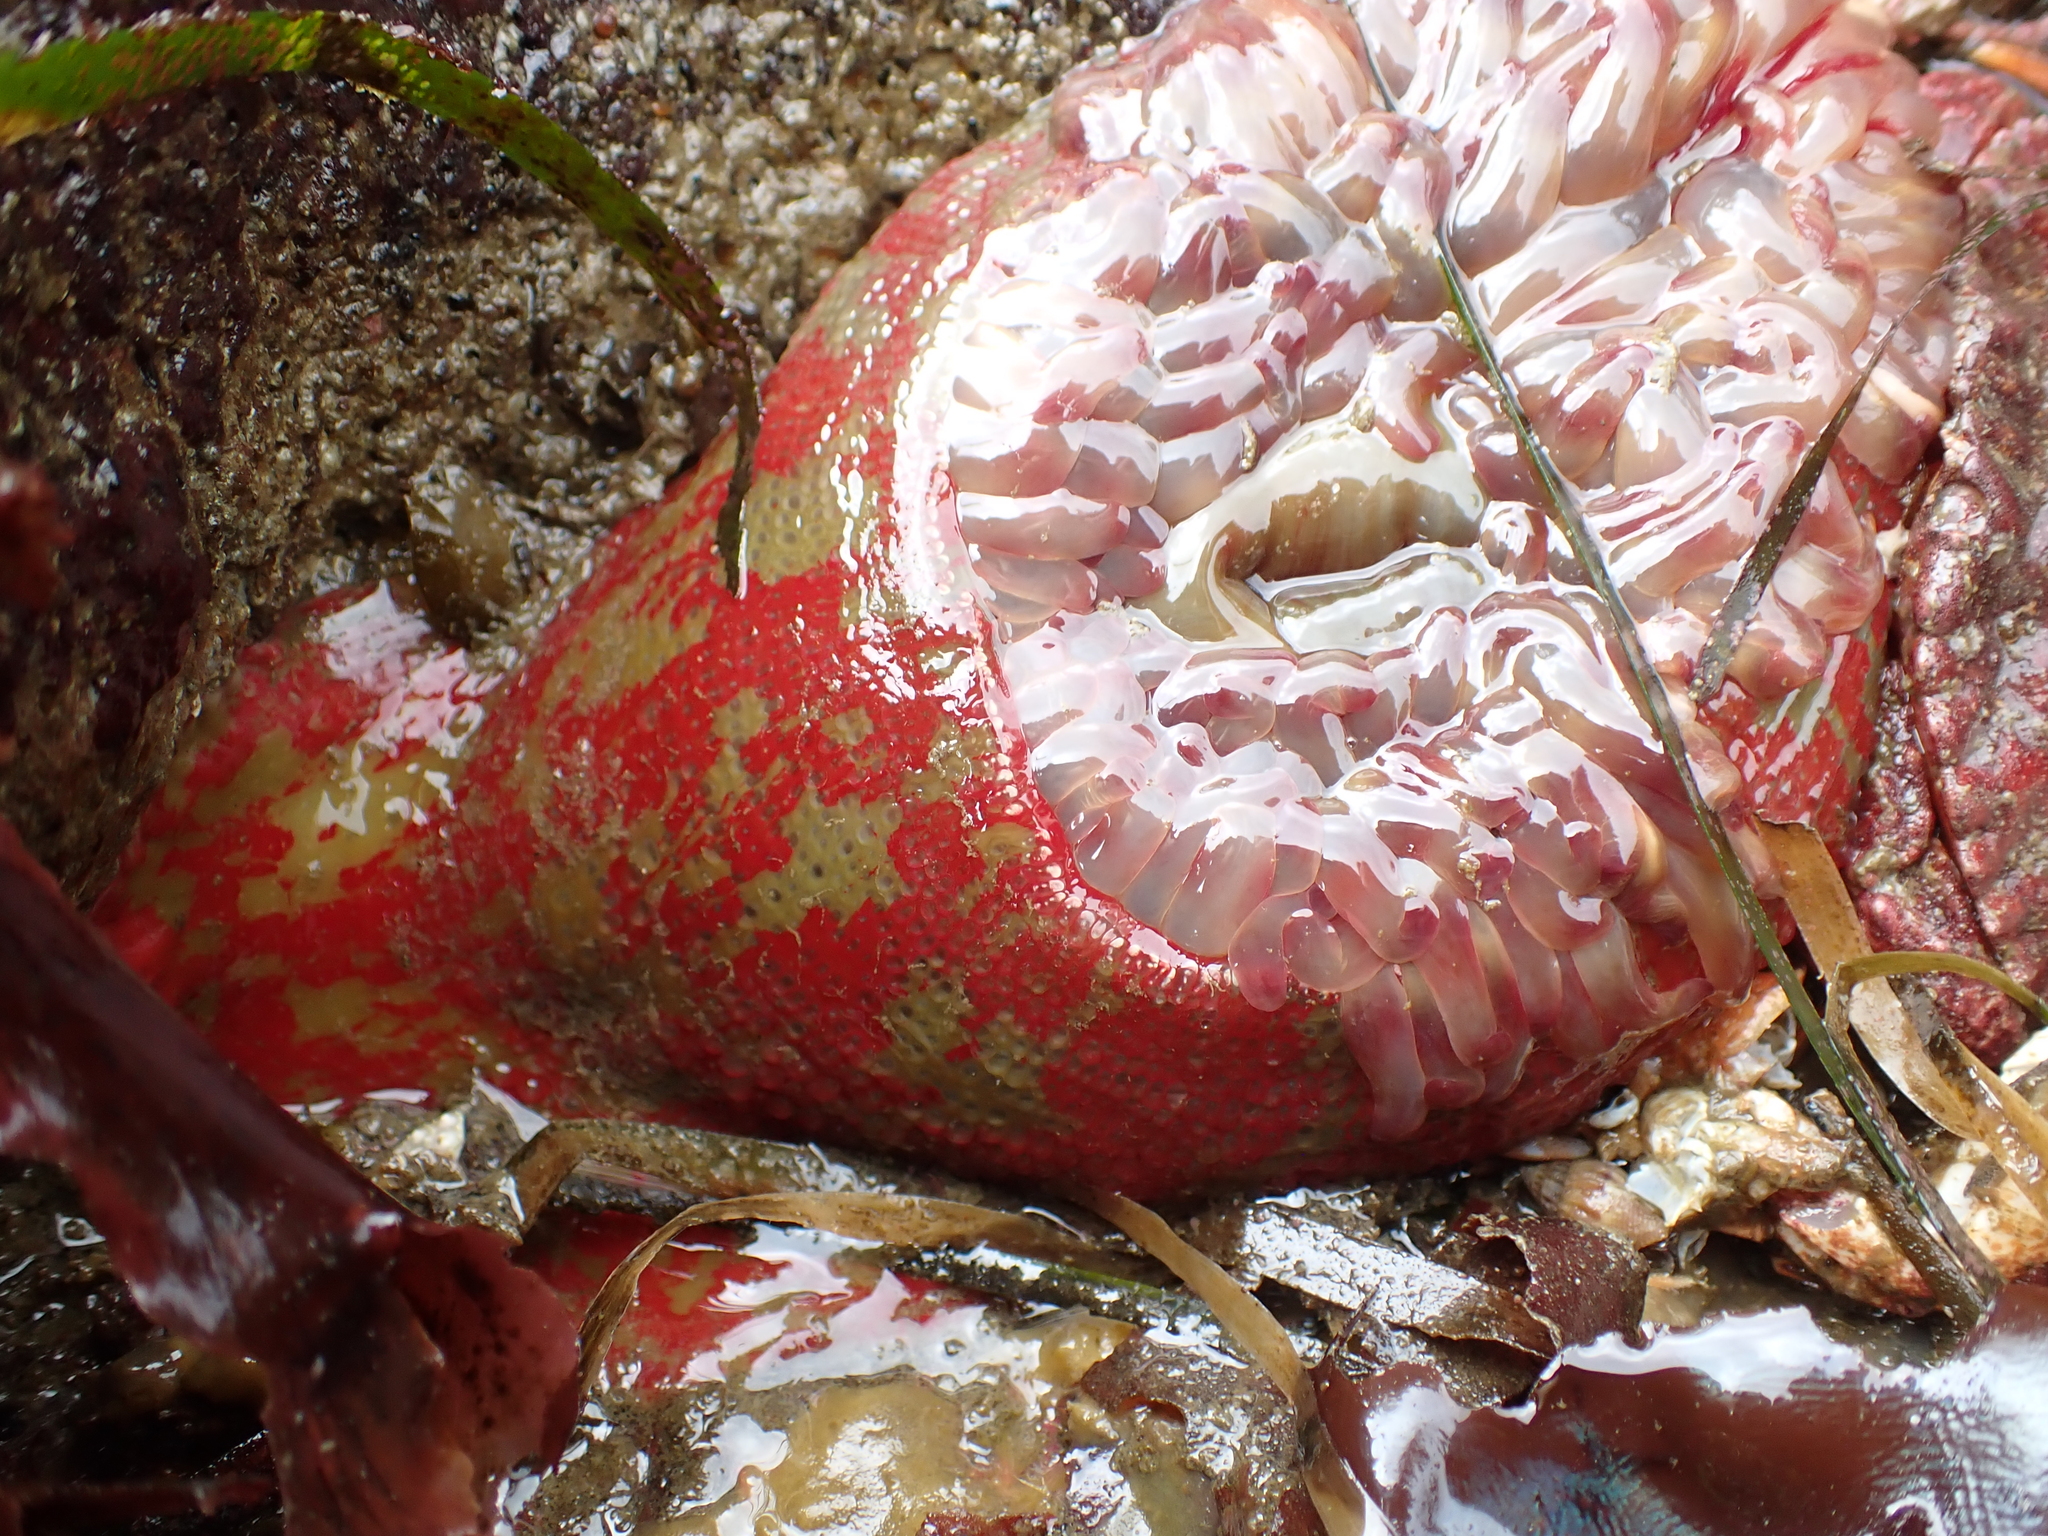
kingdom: Animalia
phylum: Cnidaria
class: Anthozoa
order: Actiniaria
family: Actiniidae
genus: Urticina
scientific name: Urticina grebelnyi
